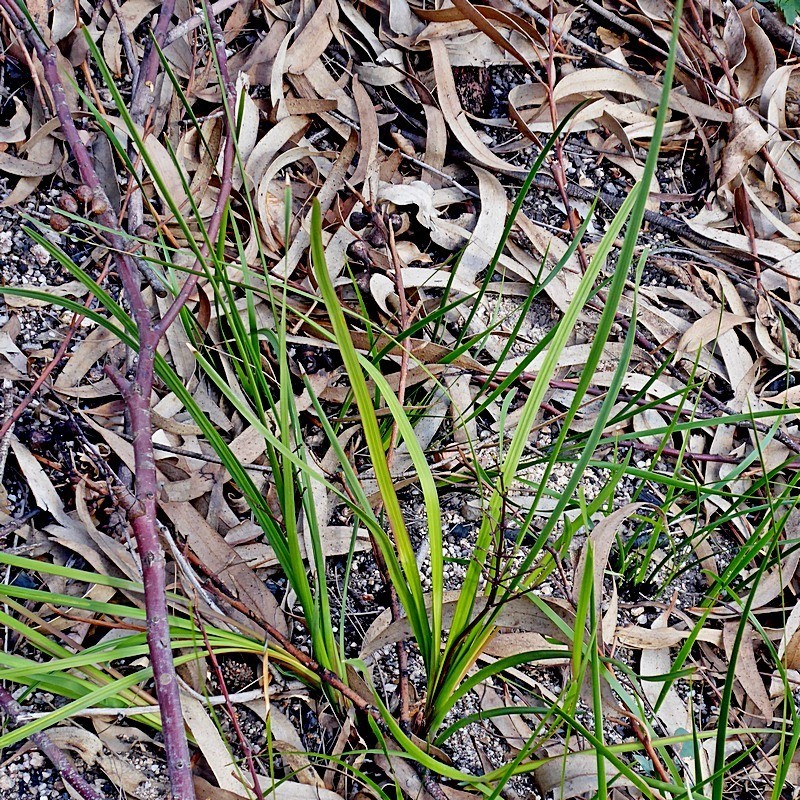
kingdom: Plantae
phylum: Tracheophyta
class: Liliopsida
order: Asparagales
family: Asparagaceae
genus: Lomandra
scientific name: Lomandra multiflora
